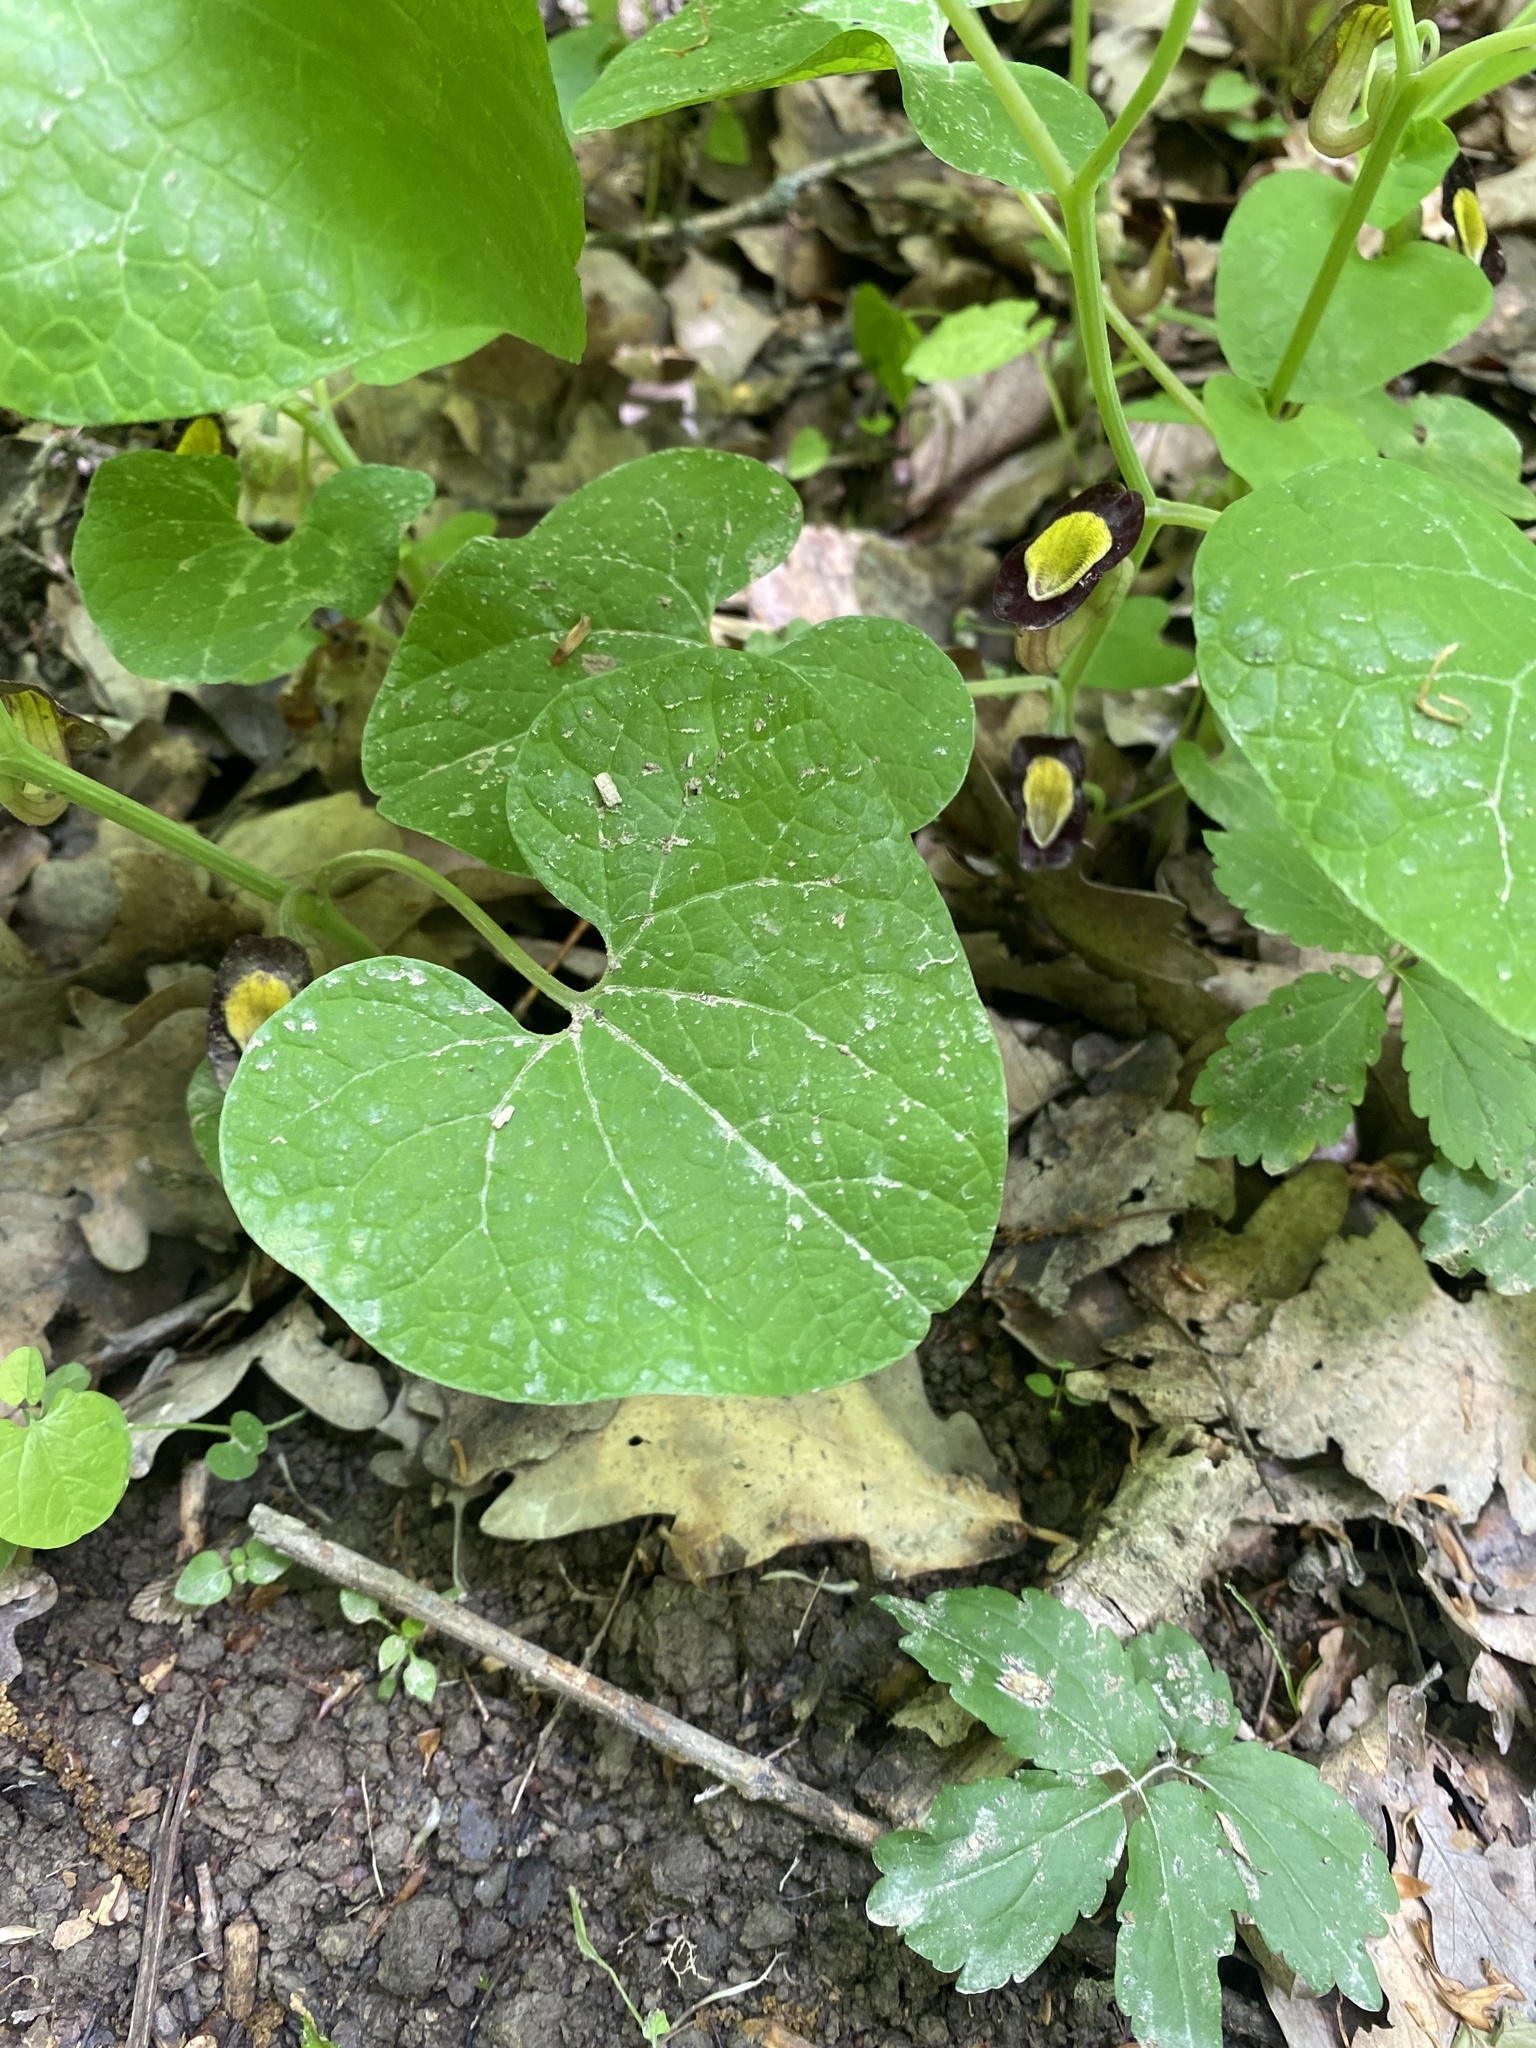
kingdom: Plantae
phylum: Tracheophyta
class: Magnoliopsida
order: Piperales
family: Aristolochiaceae
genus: Aristolochia
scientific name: Aristolochia steupii
